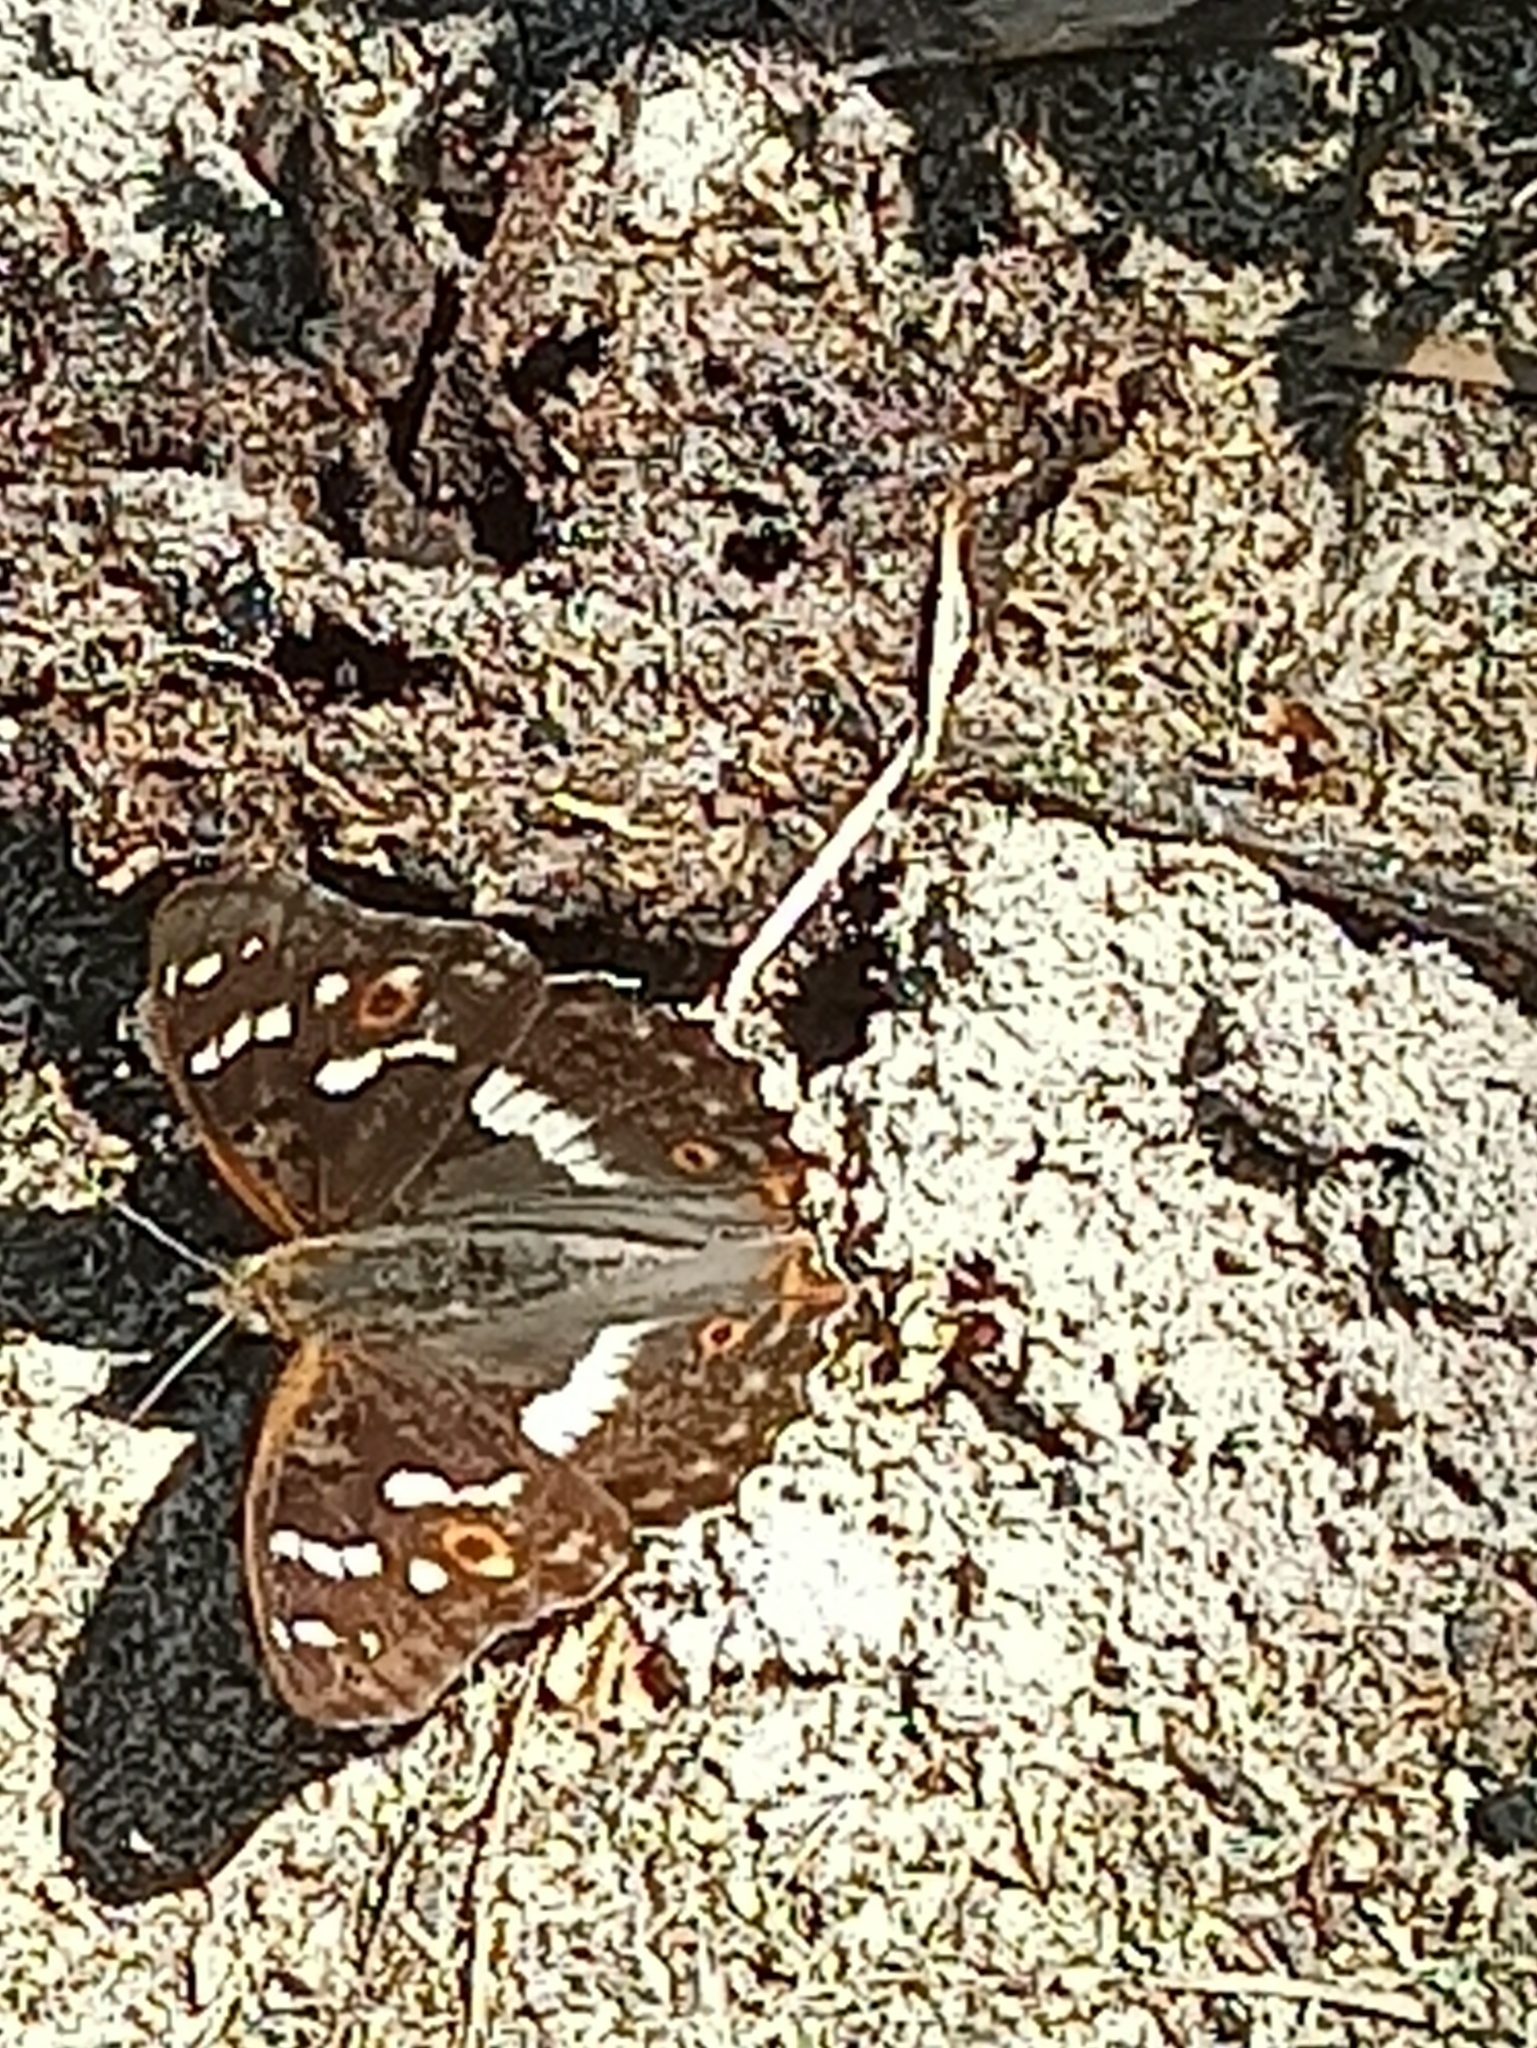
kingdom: Animalia
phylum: Arthropoda
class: Insecta
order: Lepidoptera
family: Nymphalidae
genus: Apatura
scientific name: Apatura ilia
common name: Lesser purple emperor
